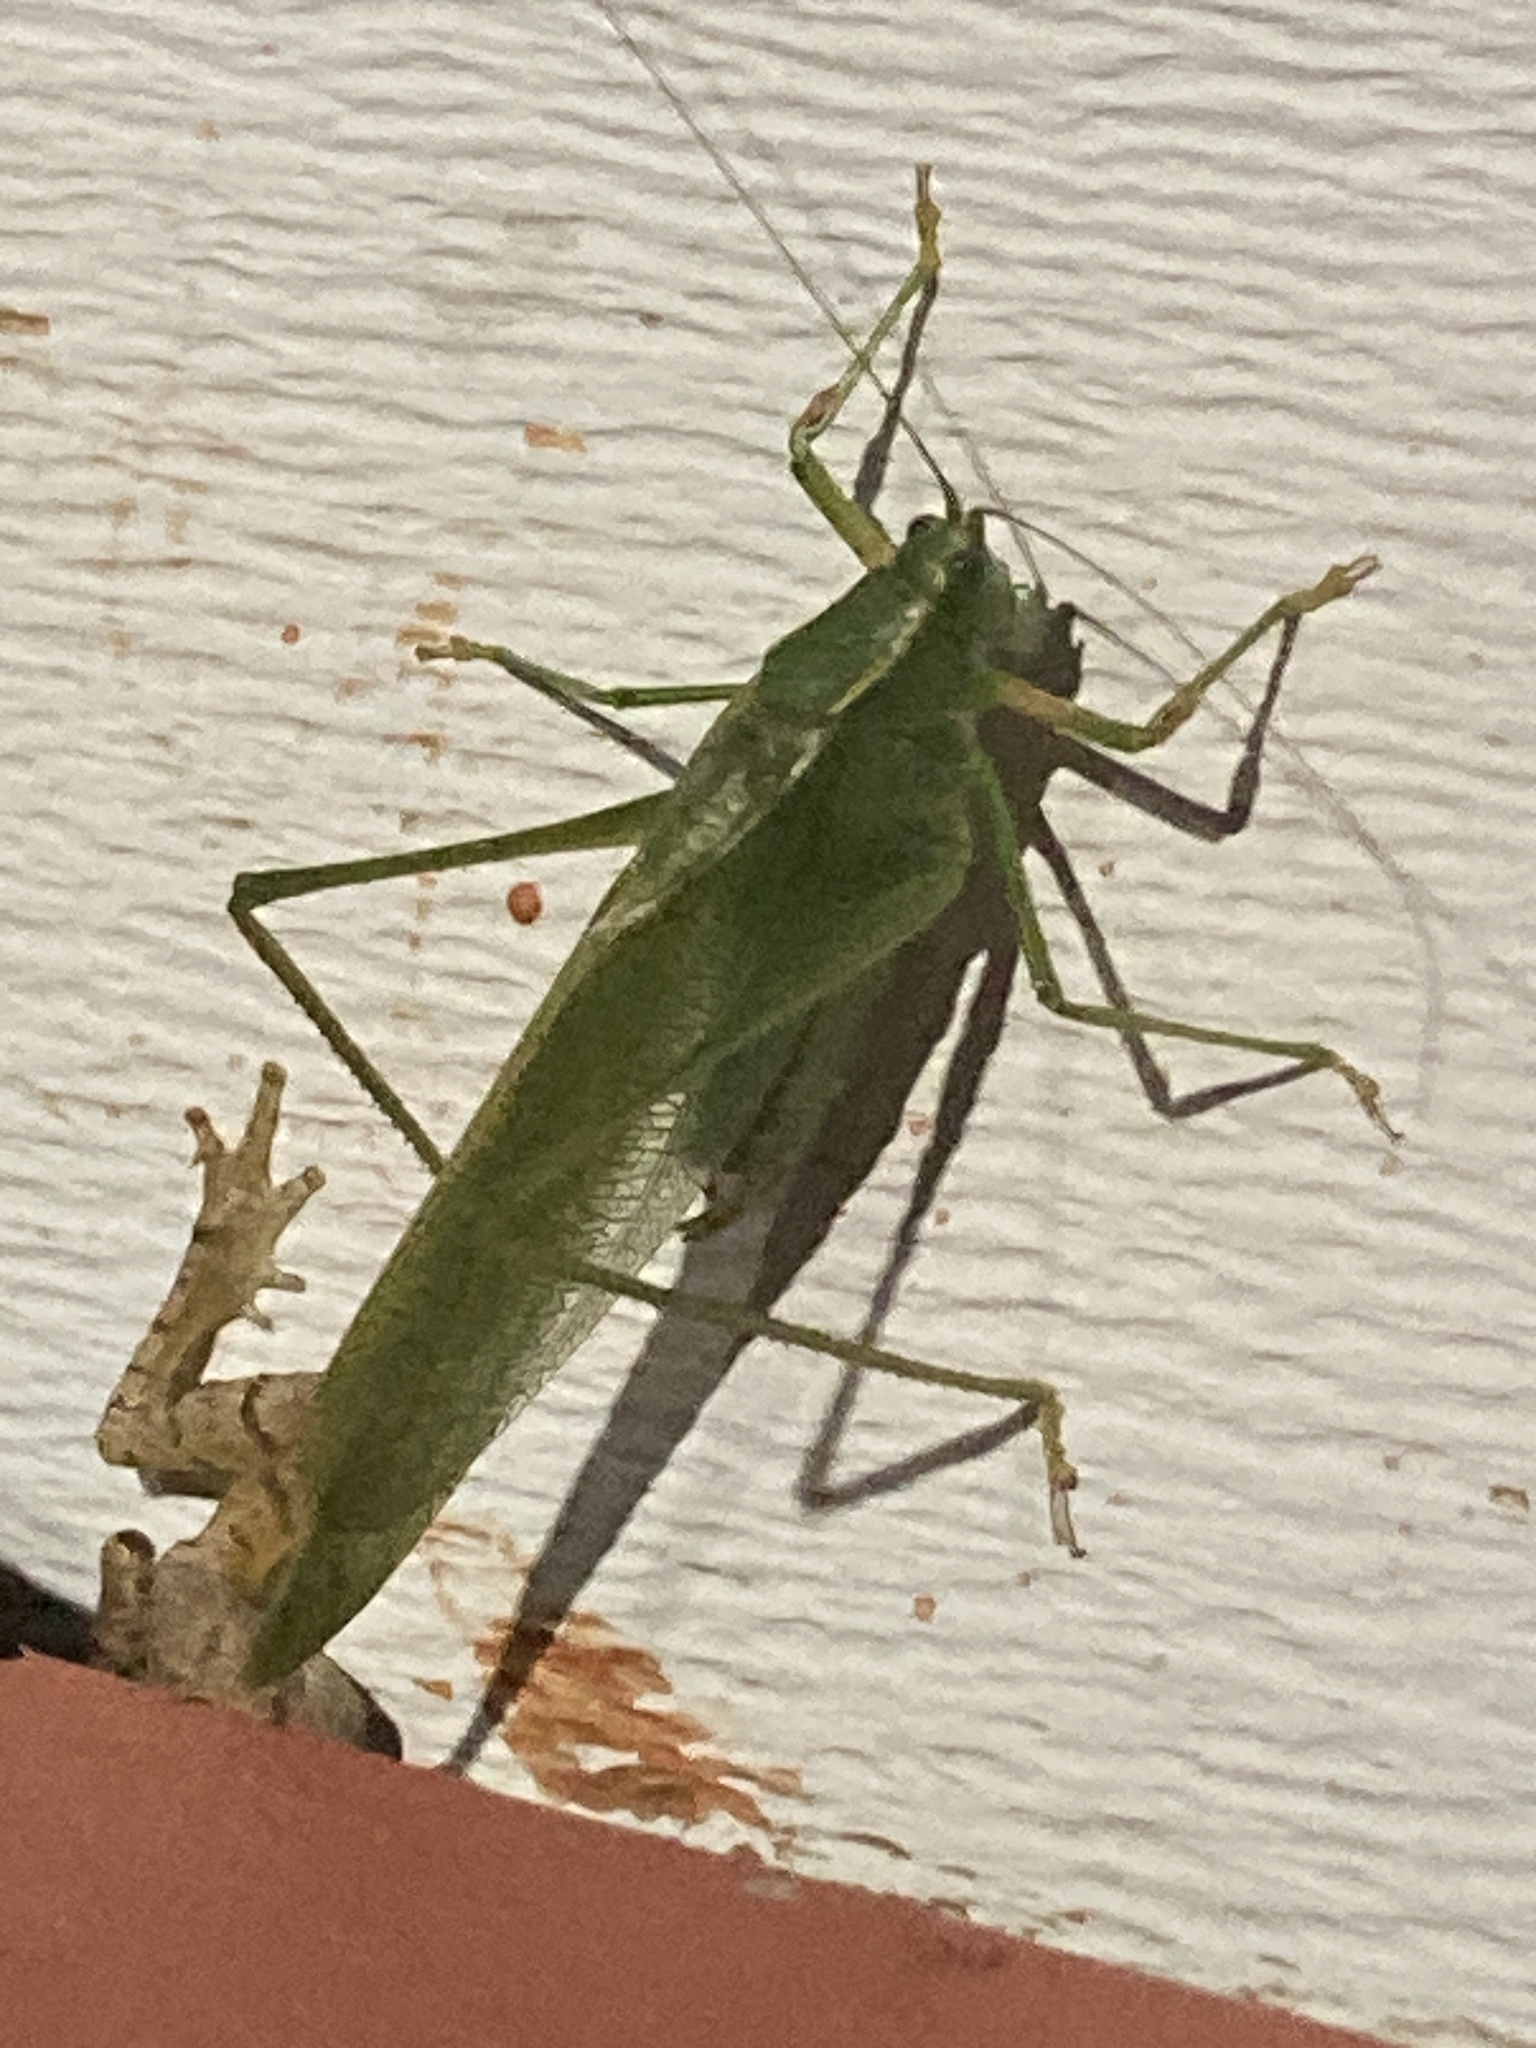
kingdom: Animalia
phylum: Arthropoda
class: Insecta
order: Orthoptera
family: Tettigoniidae
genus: Scudderia
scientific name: Scudderia septentrionalis
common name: Northern bush-katydid
